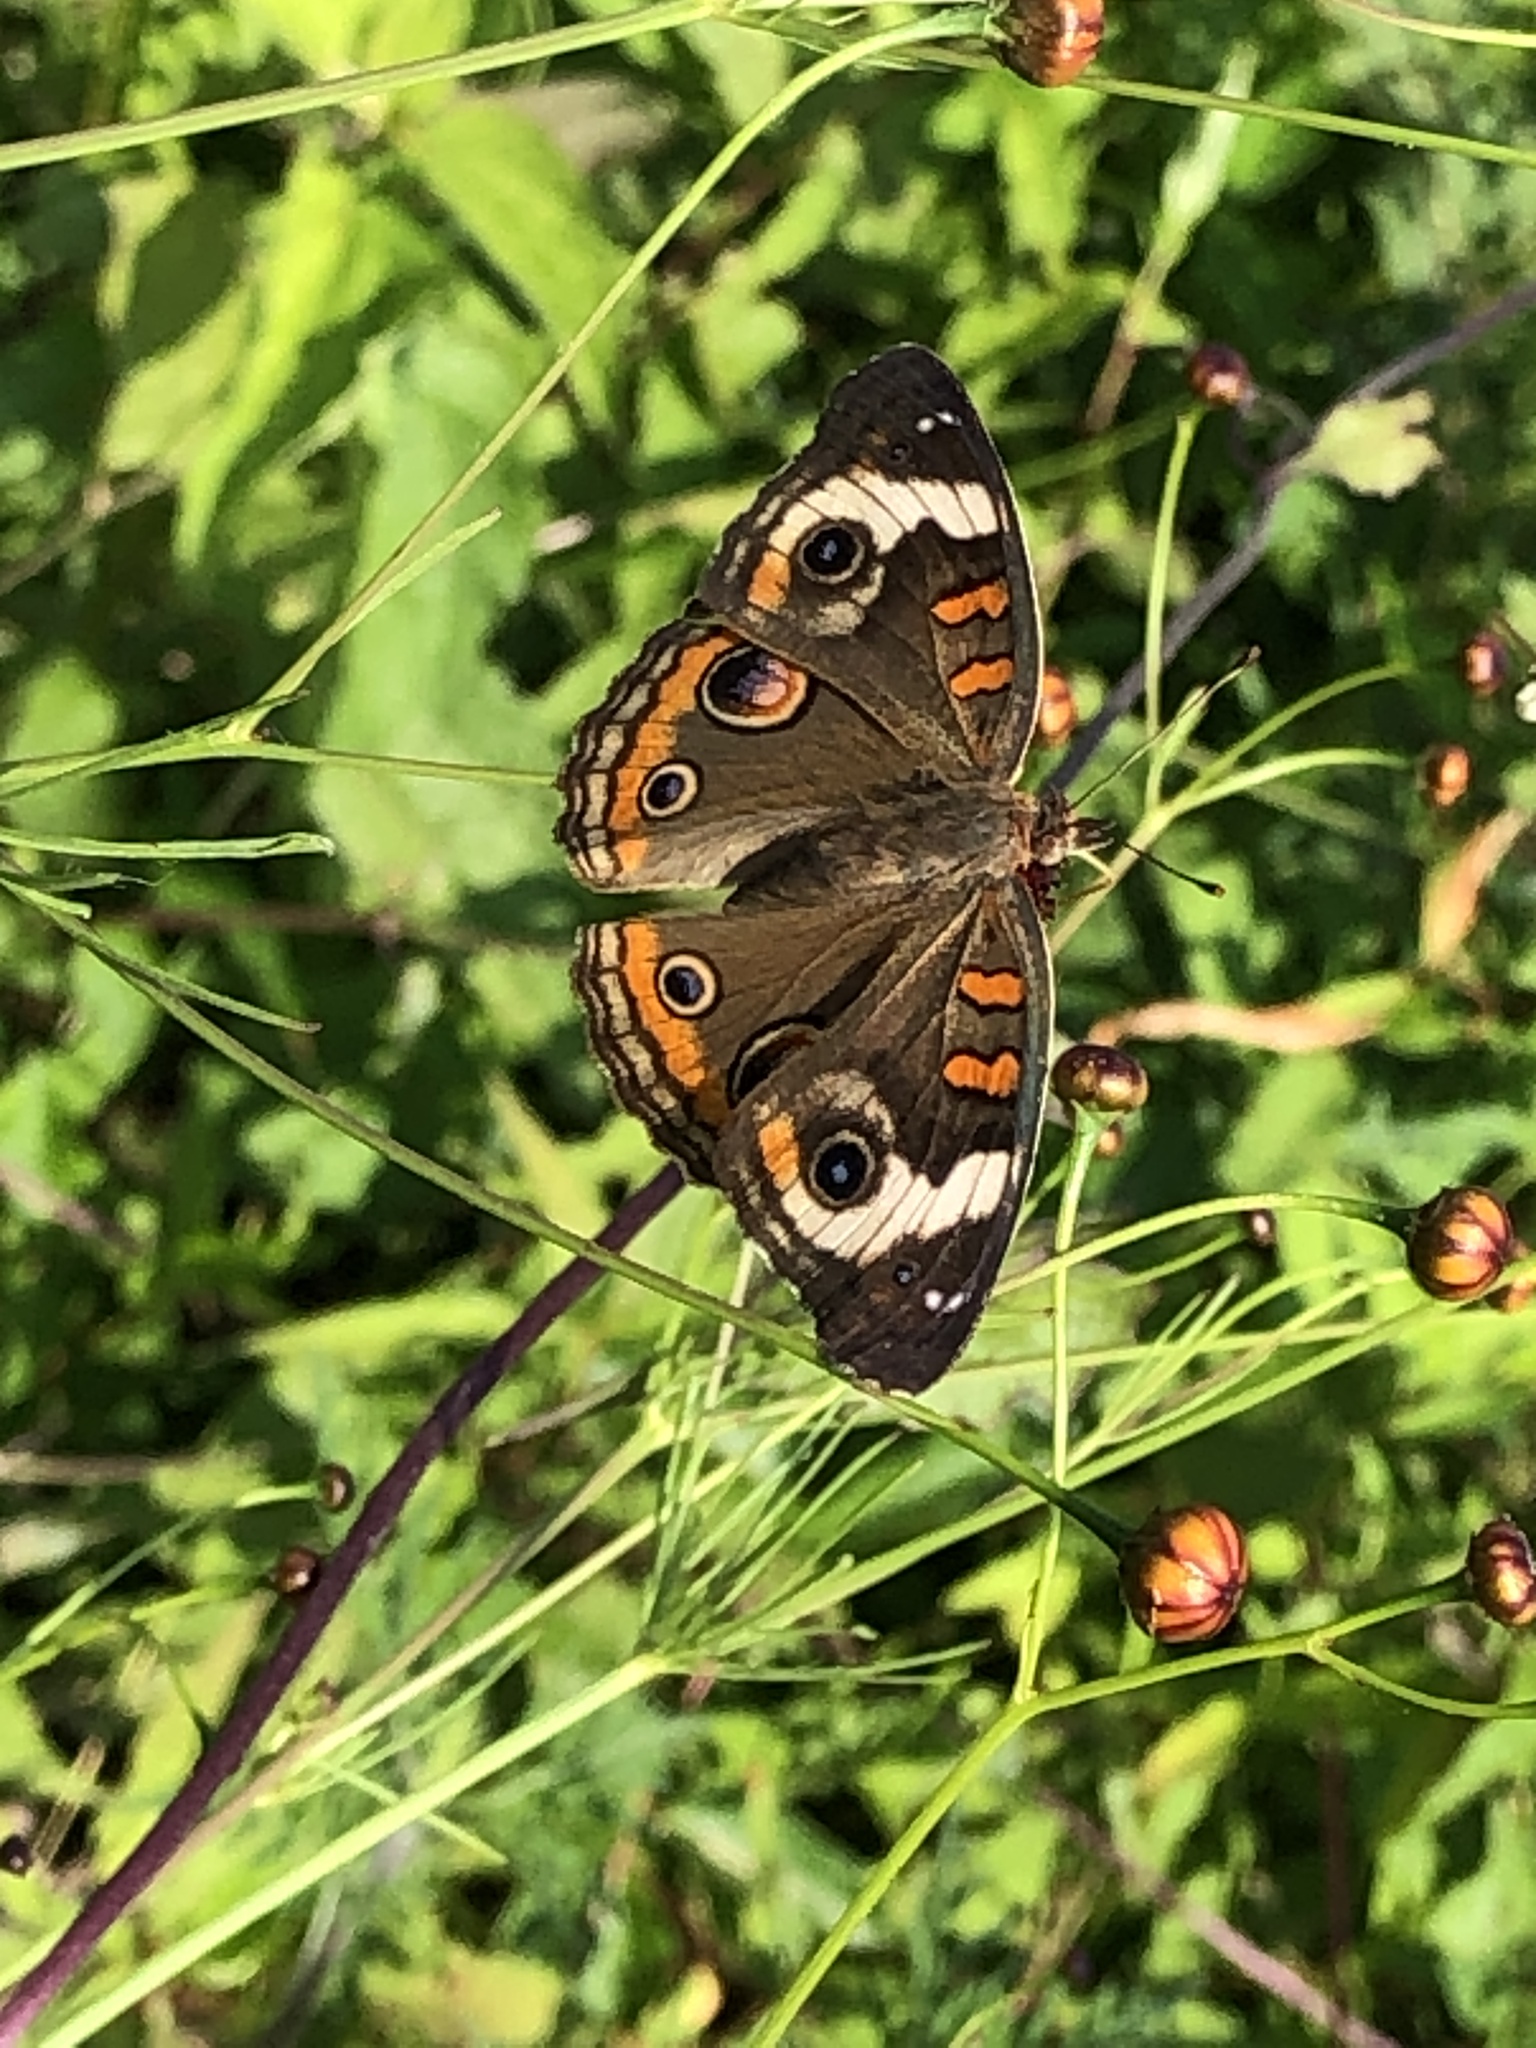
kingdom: Animalia
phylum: Arthropoda
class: Insecta
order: Lepidoptera
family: Nymphalidae
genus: Junonia
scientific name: Junonia coenia
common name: Common buckeye
